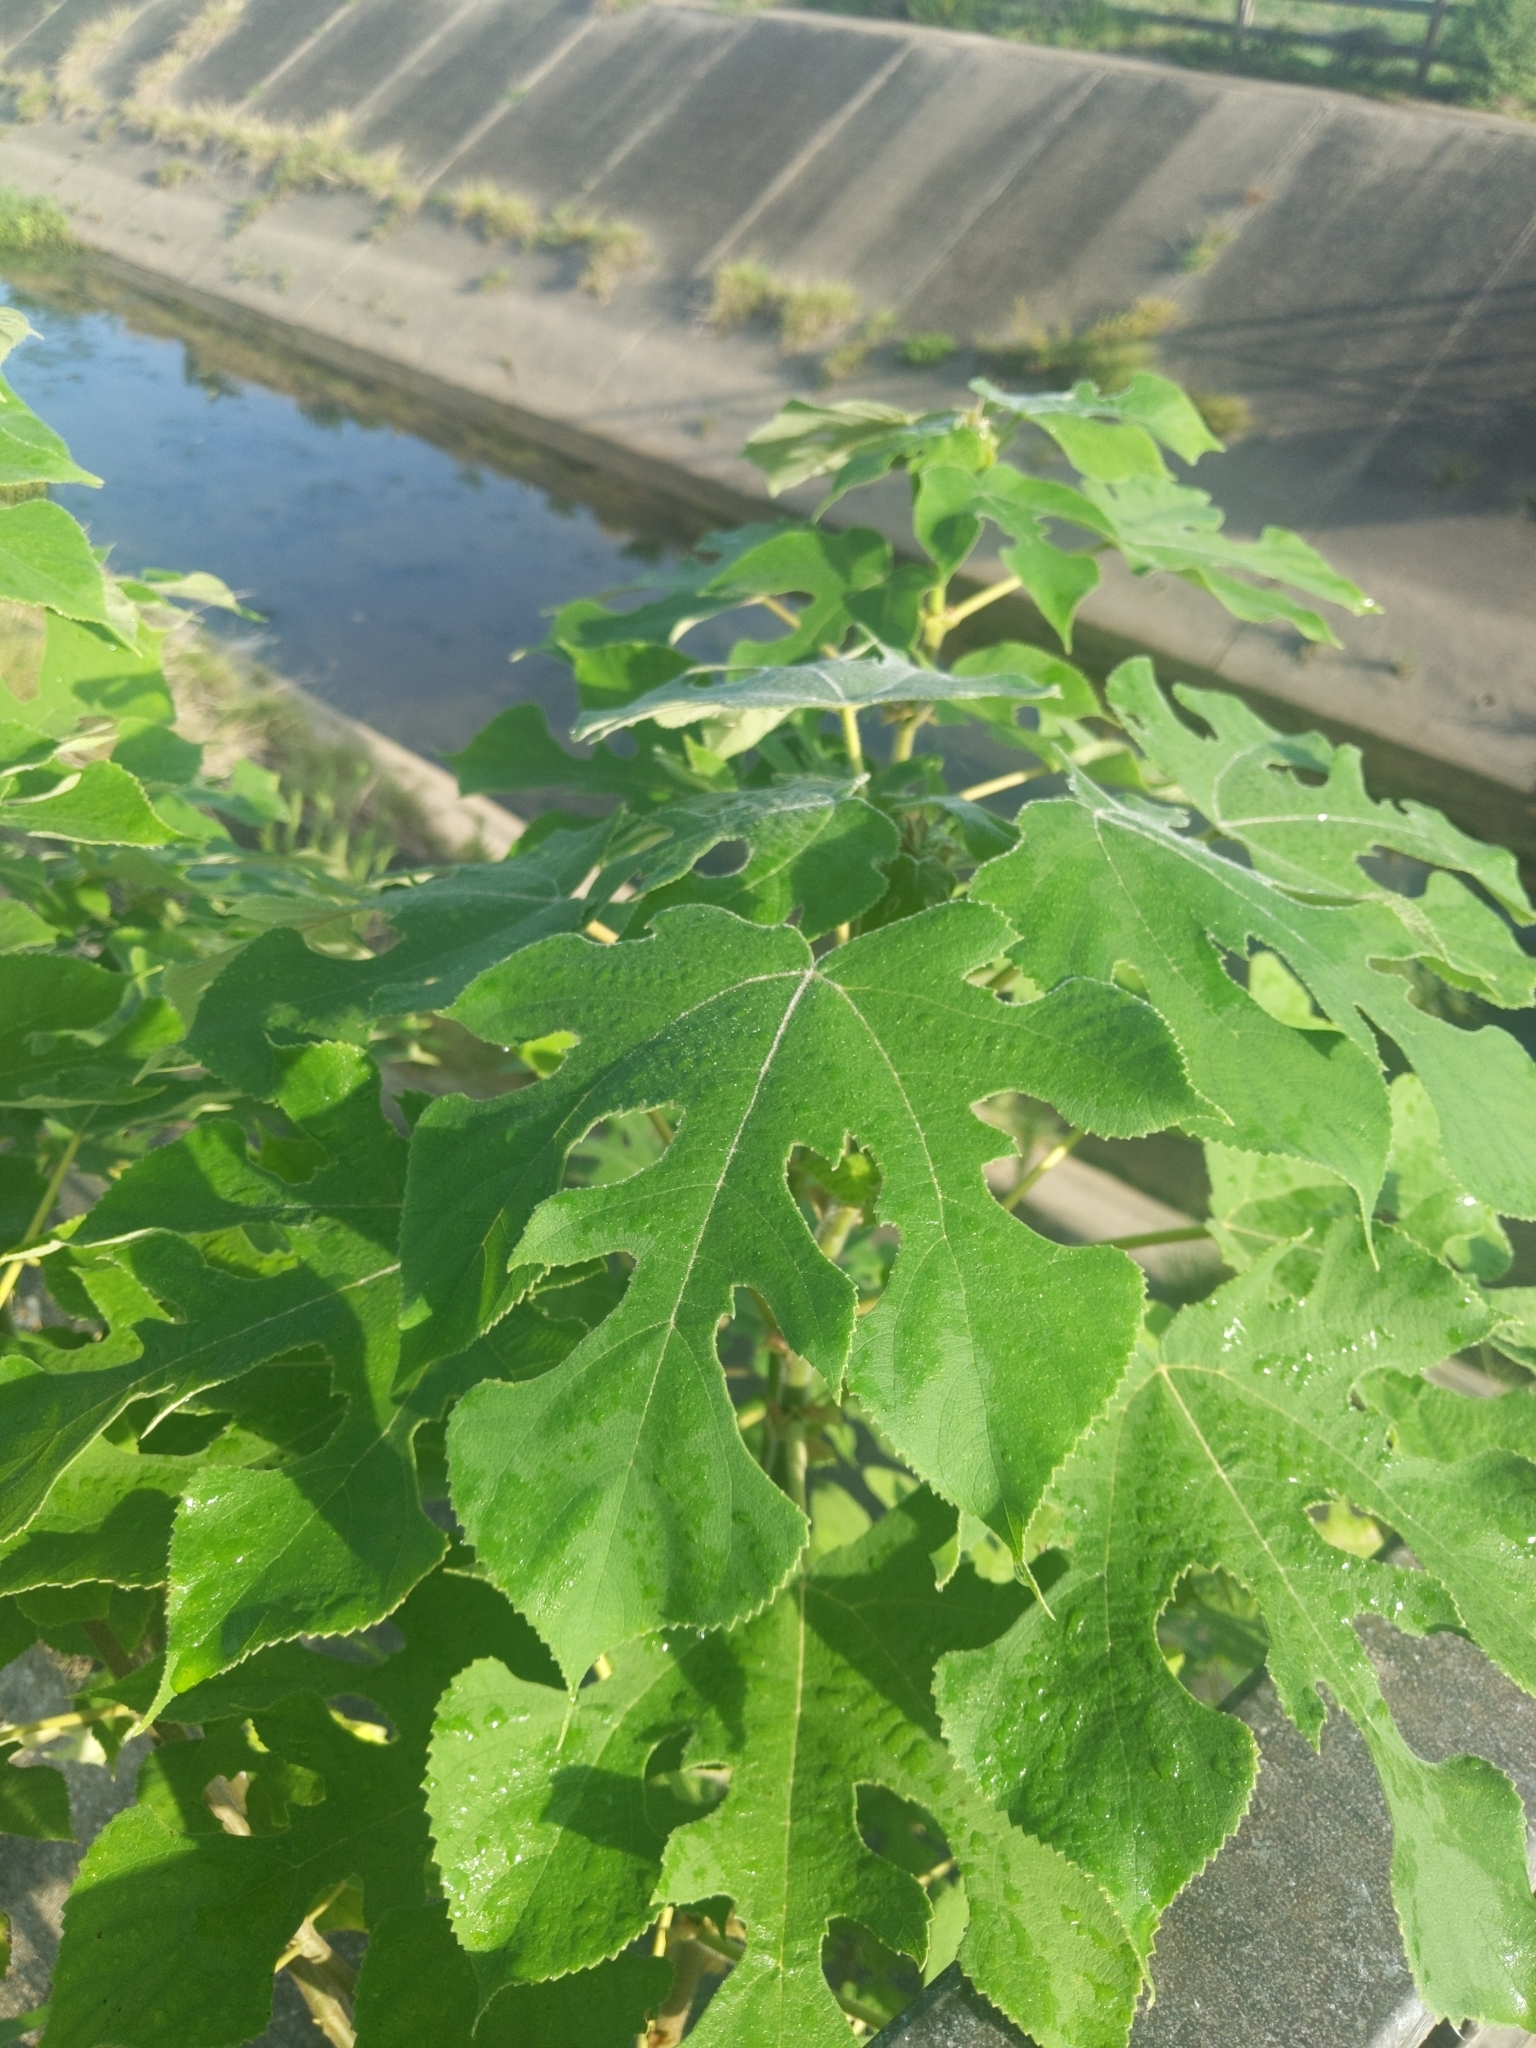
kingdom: Plantae
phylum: Tracheophyta
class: Magnoliopsida
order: Rosales
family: Moraceae
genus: Broussonetia
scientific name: Broussonetia papyrifera
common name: Paper mulberry
